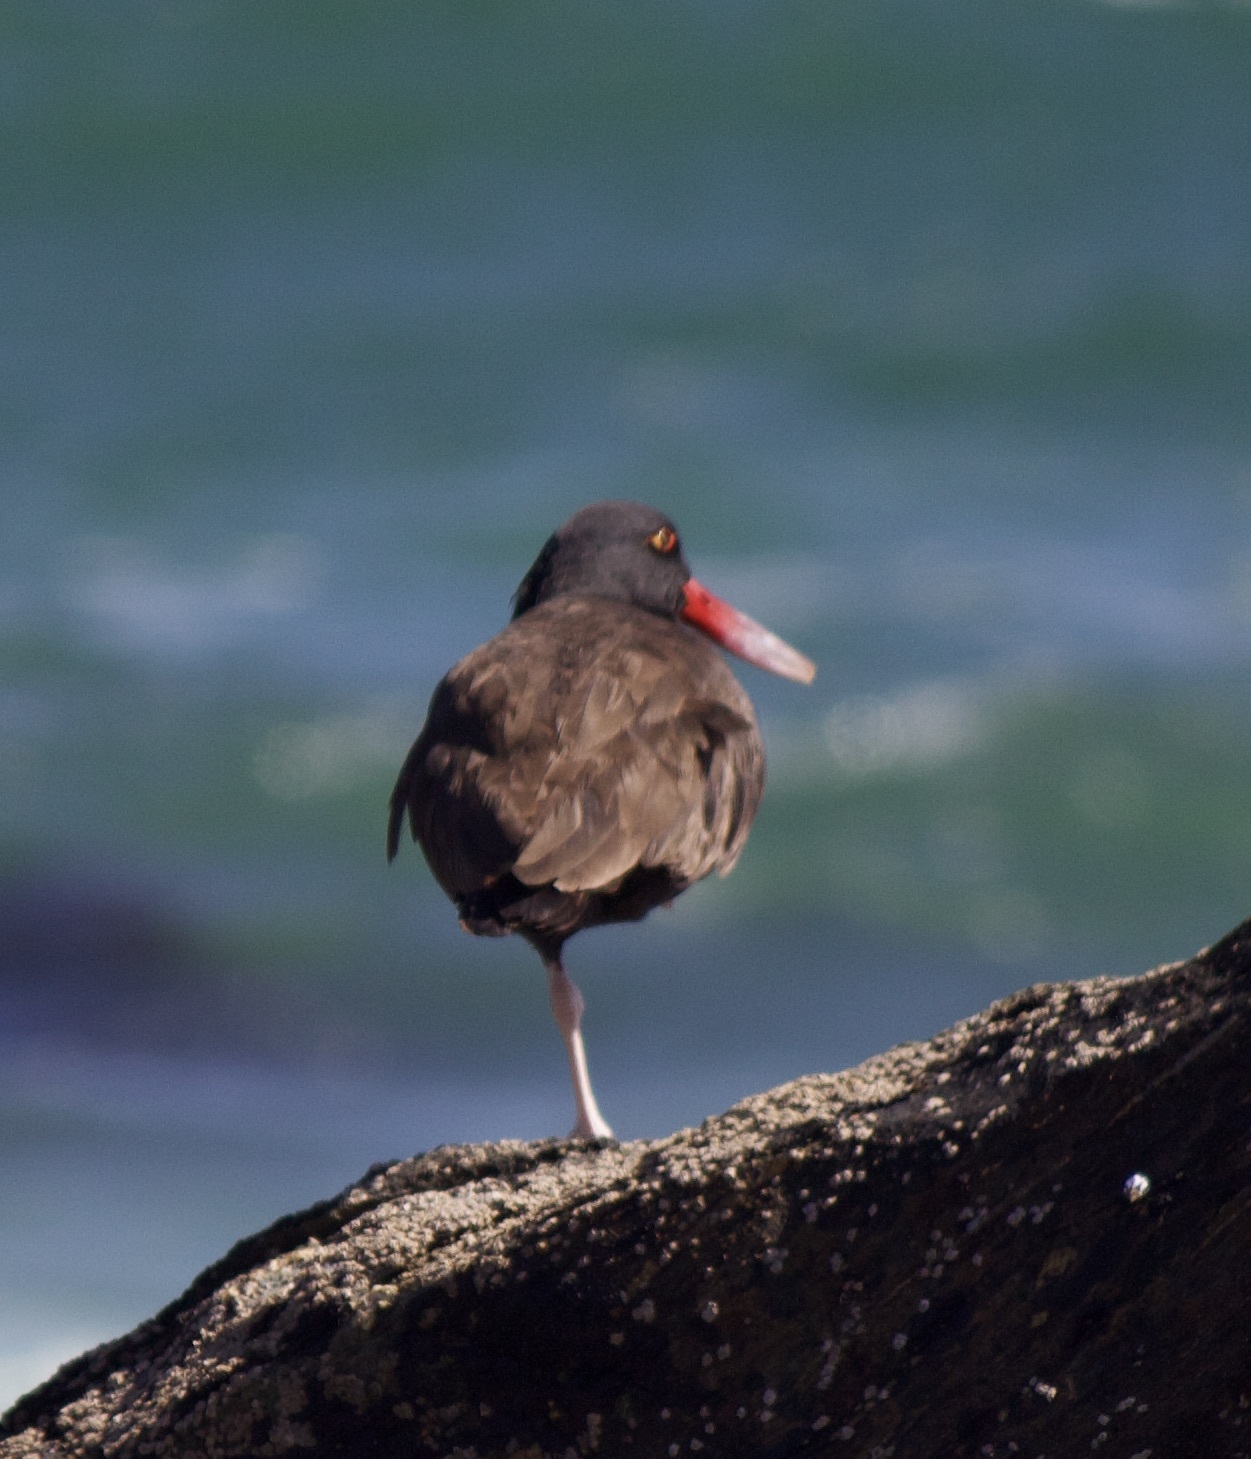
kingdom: Animalia
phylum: Chordata
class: Aves
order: Charadriiformes
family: Haematopodidae
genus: Haematopus
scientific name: Haematopus ater
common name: Blackish oystercatcher
